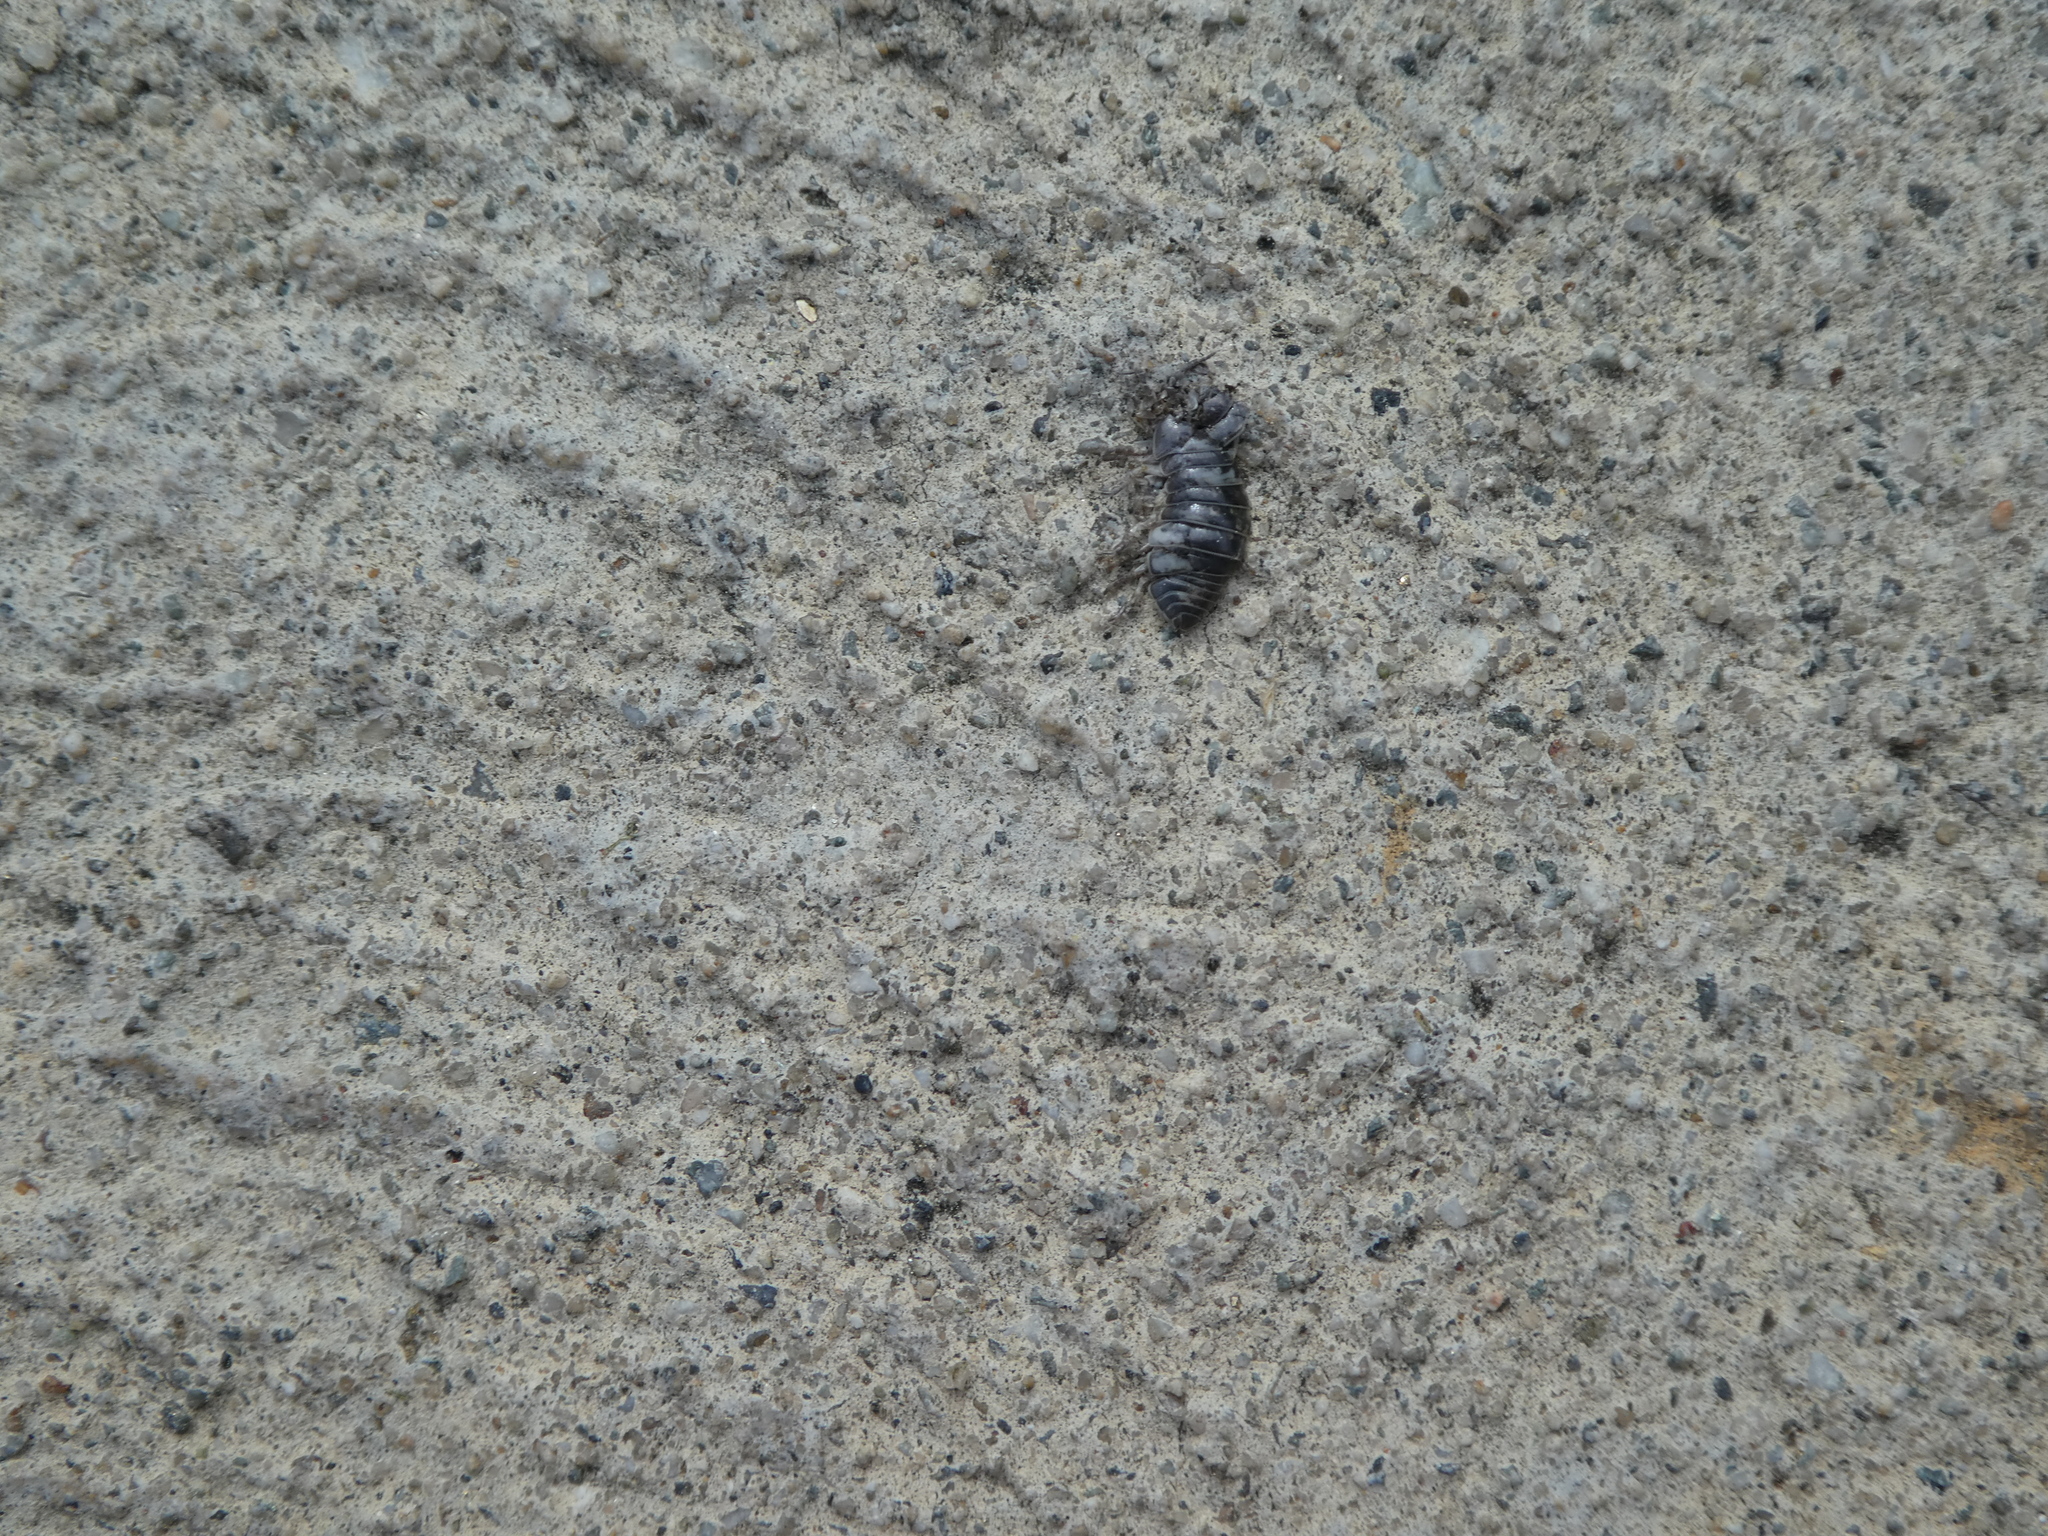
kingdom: Animalia
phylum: Arthropoda
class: Malacostraca
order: Isopoda
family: Armadillidiidae
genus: Armadillidium
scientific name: Armadillidium vulgare
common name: Common pill woodlouse
